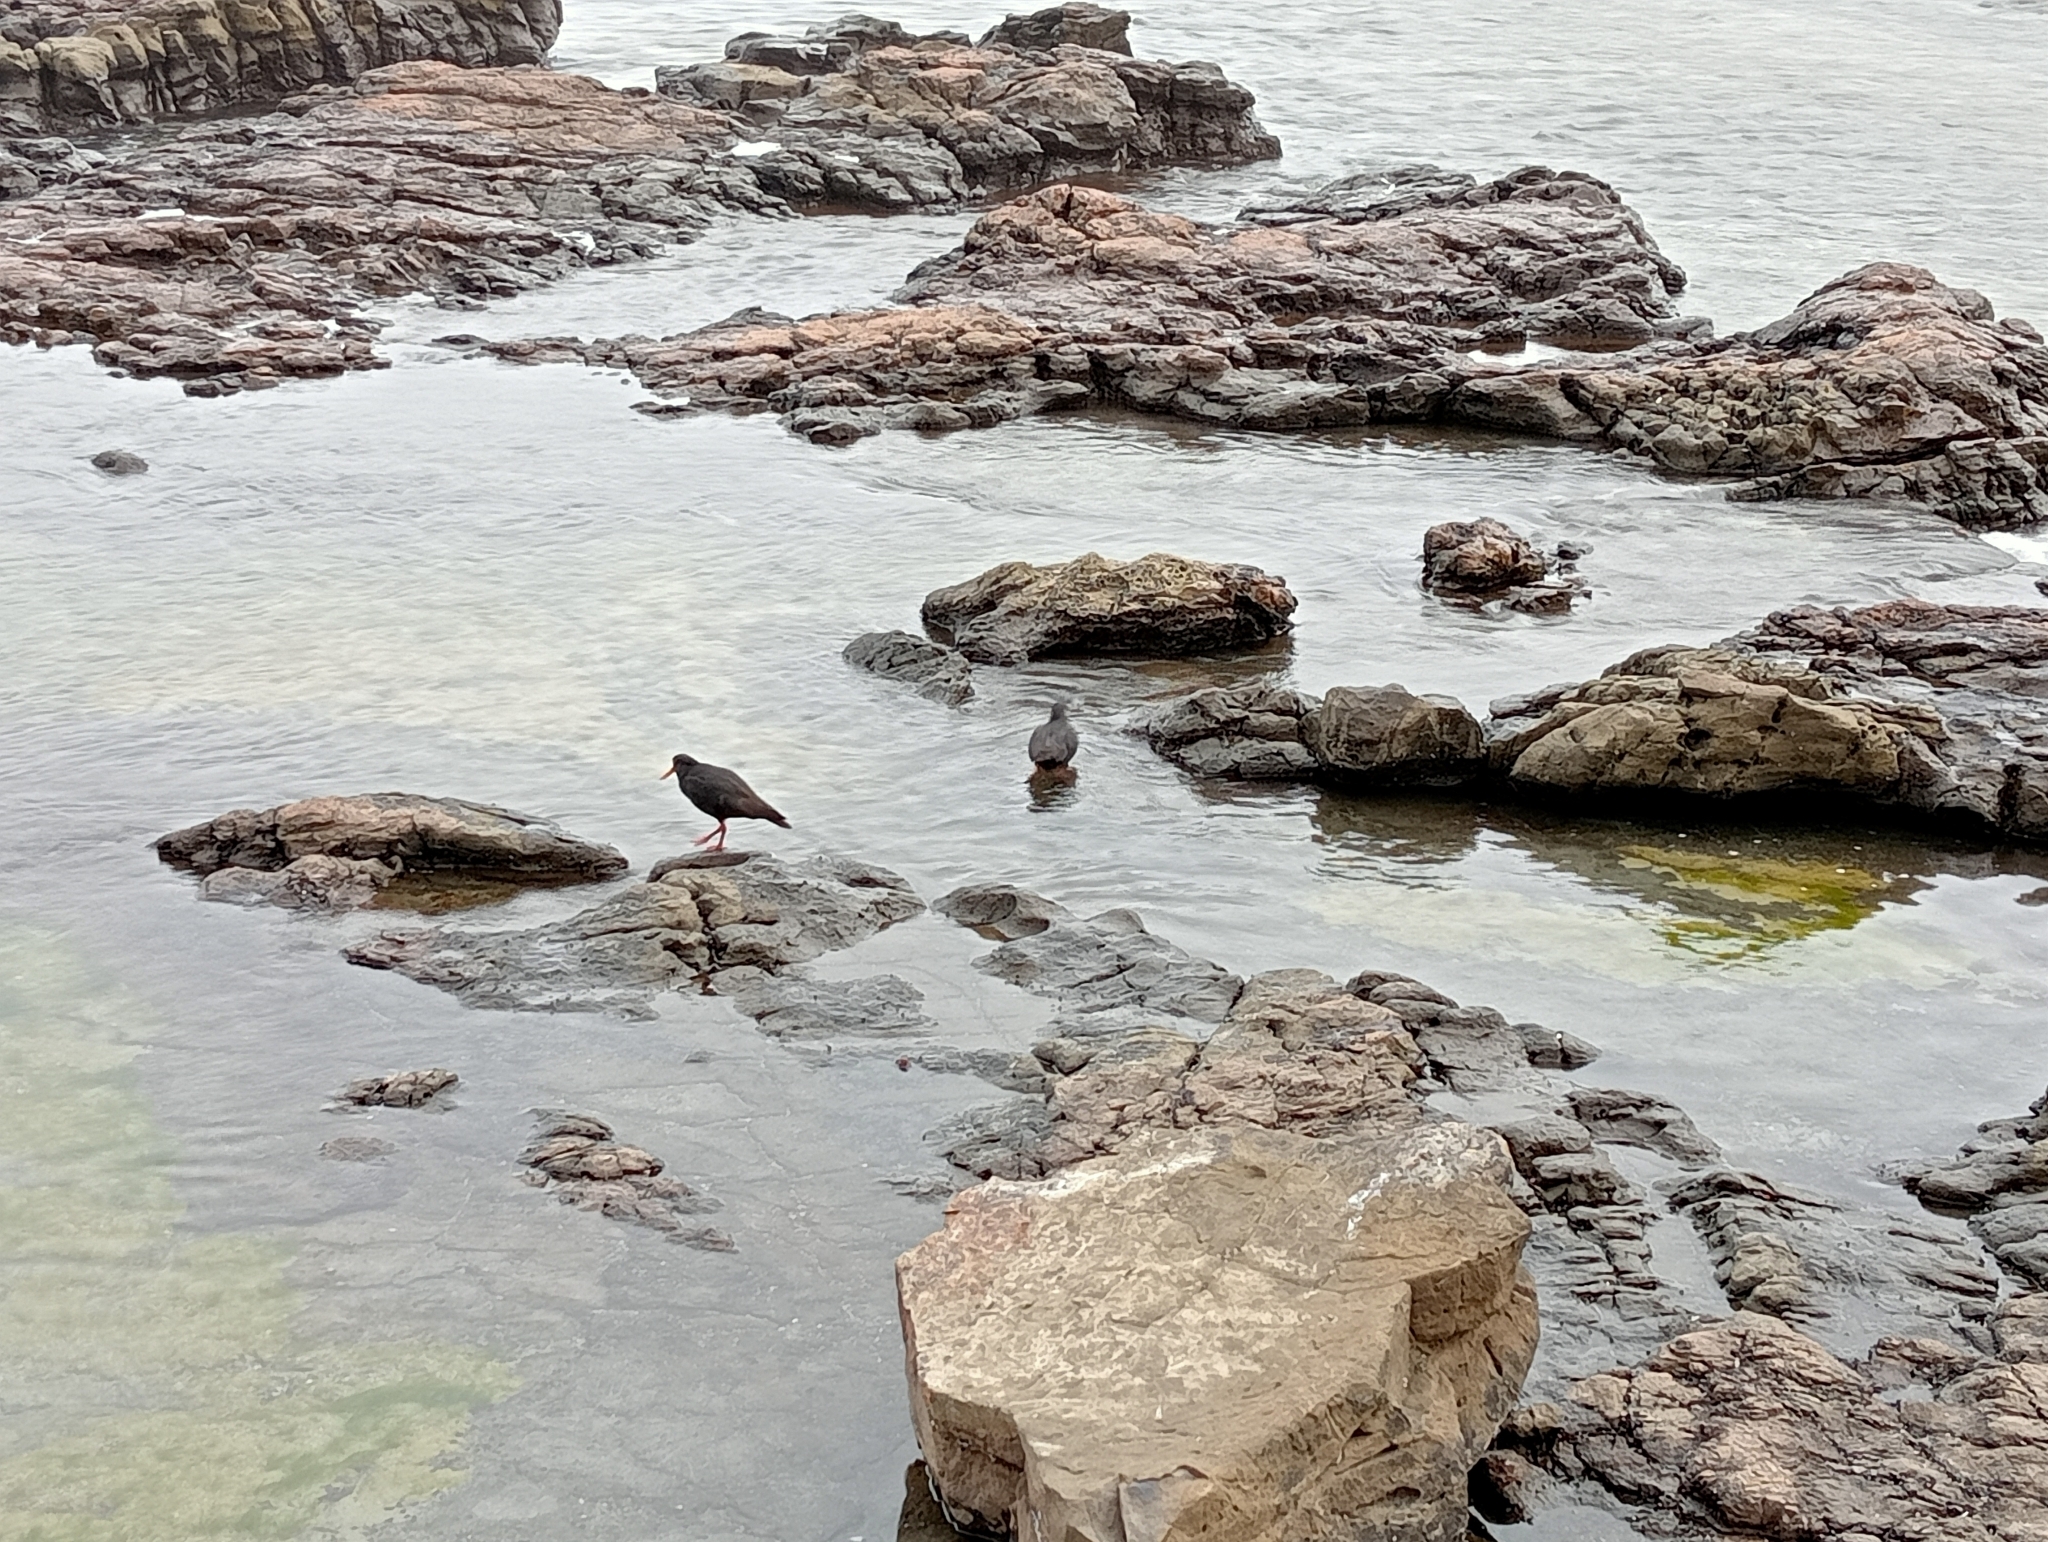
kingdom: Animalia
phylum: Chordata
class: Aves
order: Charadriiformes
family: Haematopodidae
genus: Haematopus
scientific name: Haematopus unicolor
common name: Variable oystercatcher
